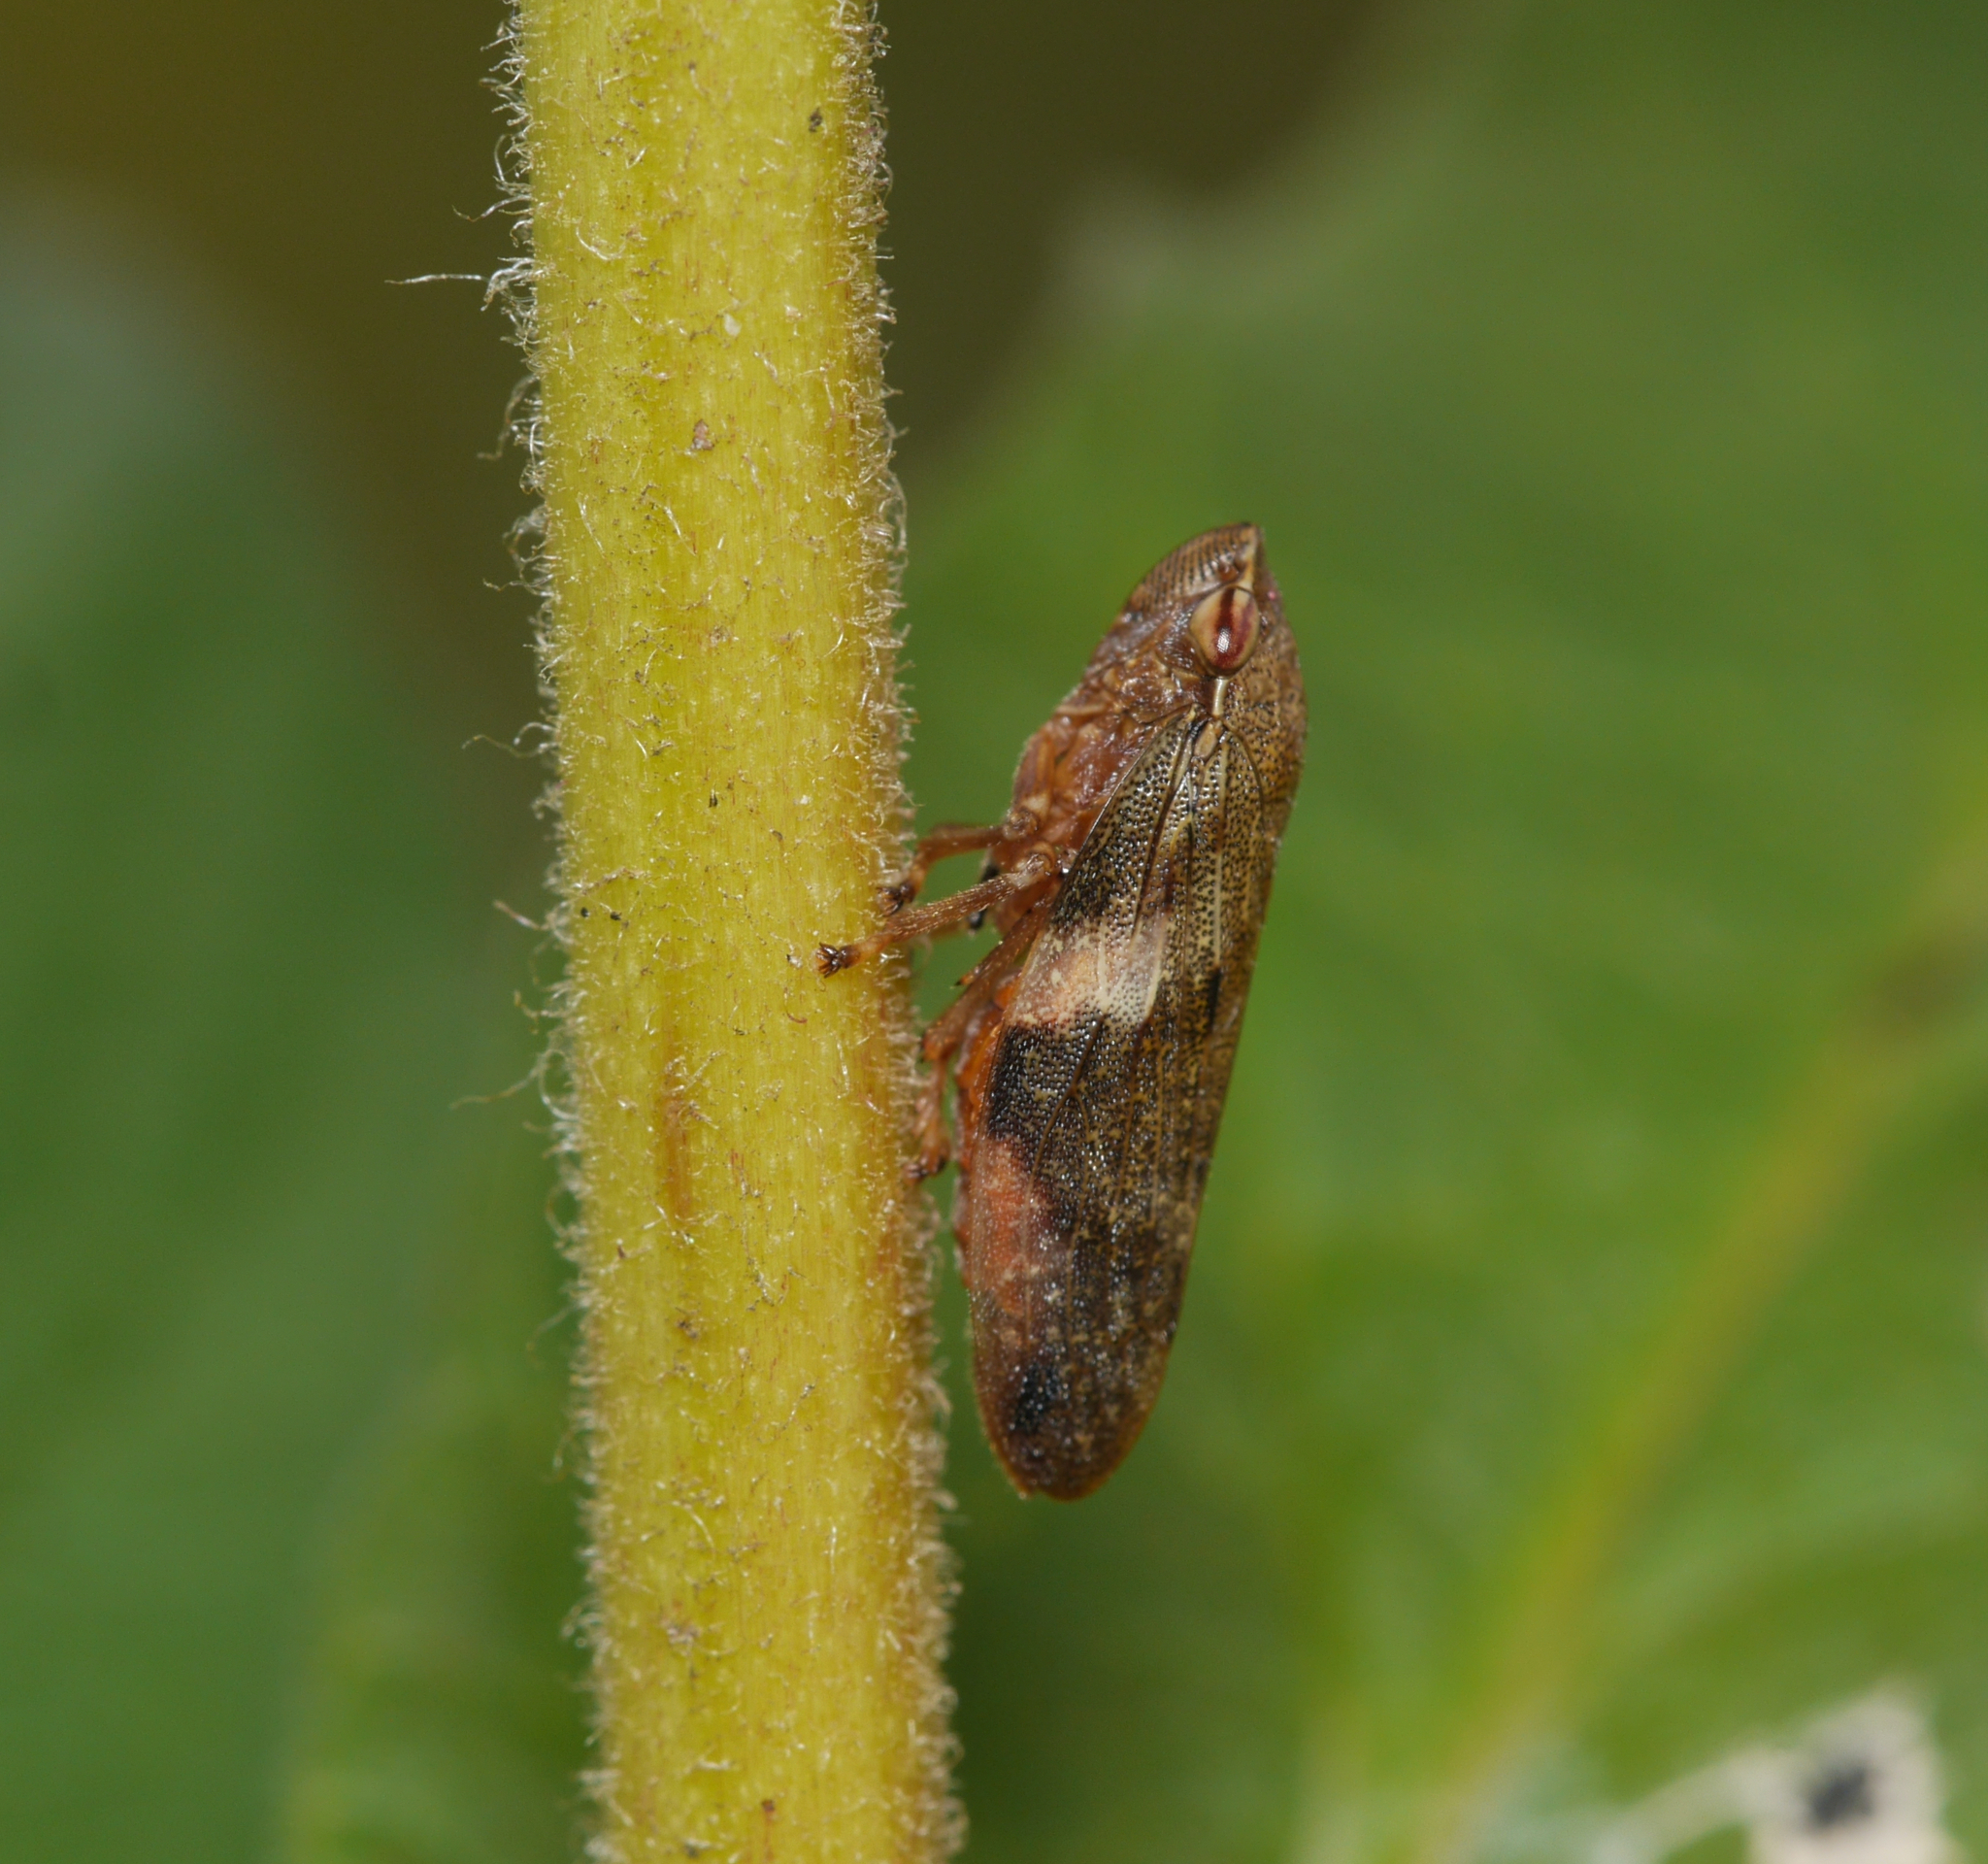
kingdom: Animalia
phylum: Arthropoda
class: Insecta
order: Hemiptera
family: Aphrophoridae
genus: Aphrophora
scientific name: Aphrophora alni
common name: European alder spittlebug
